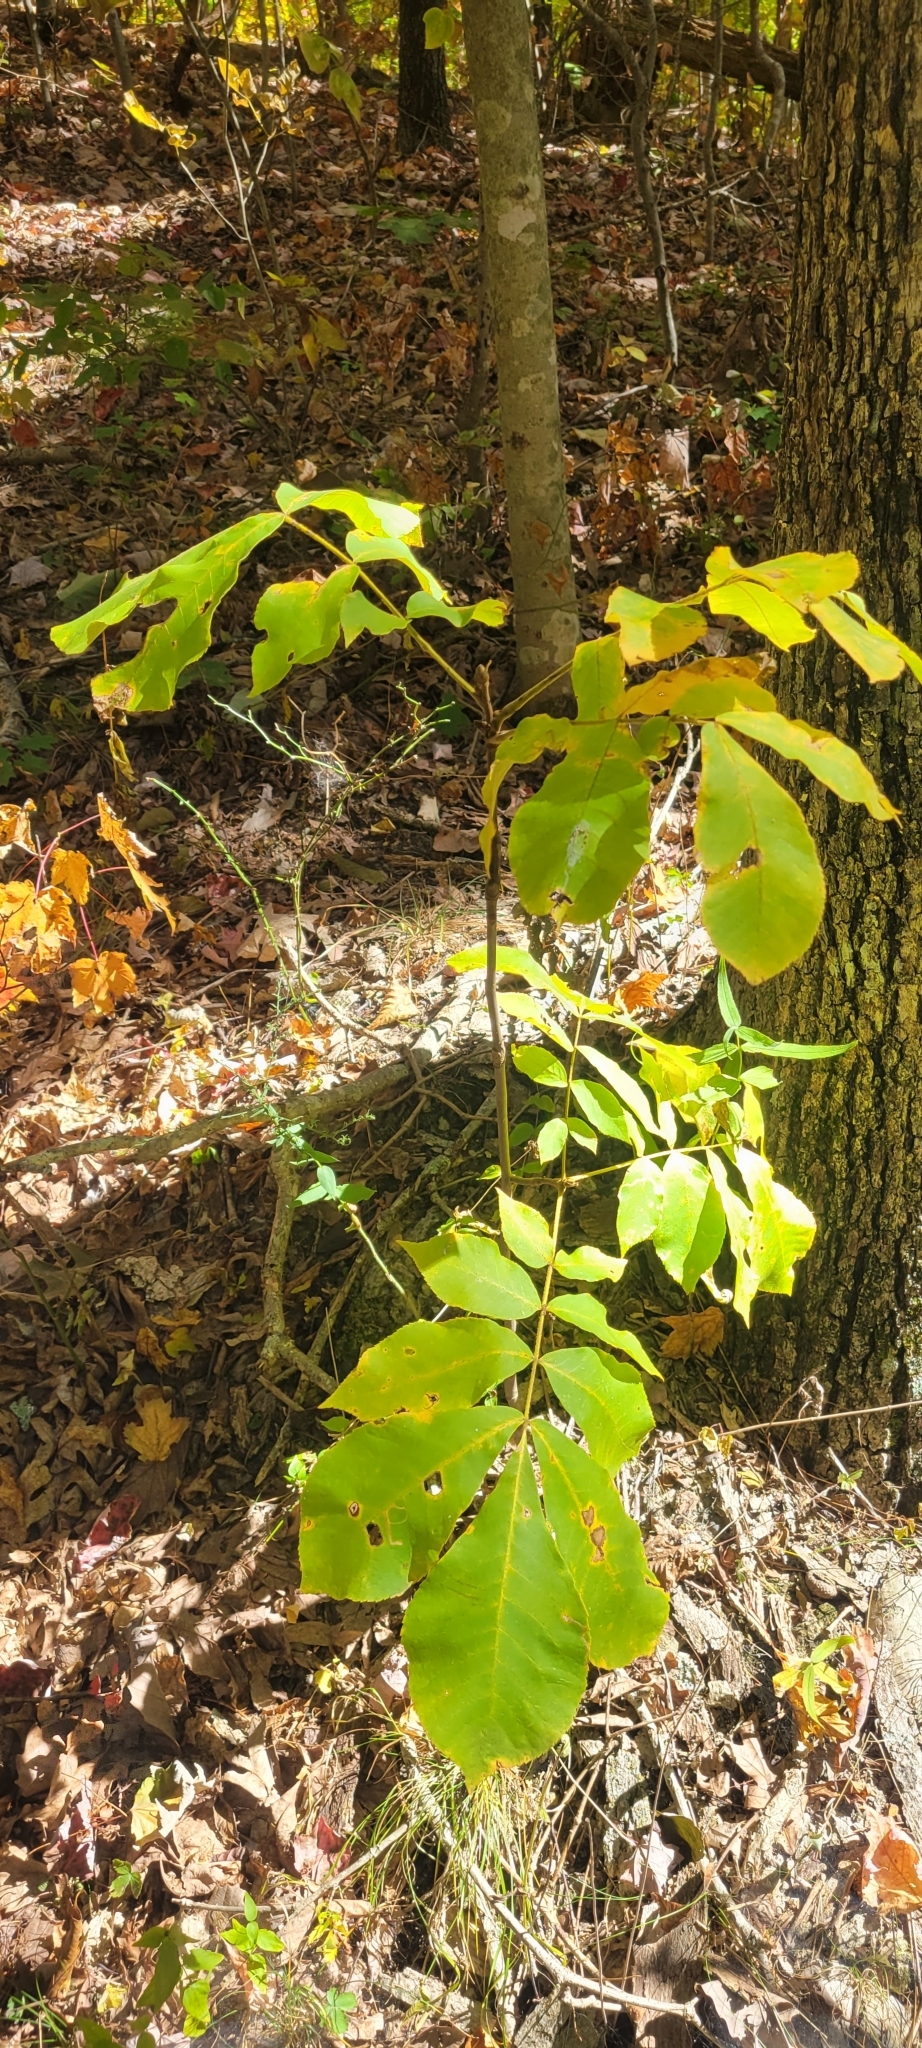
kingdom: Plantae
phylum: Tracheophyta
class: Magnoliopsida
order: Fagales
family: Juglandaceae
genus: Carya
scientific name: Carya alba
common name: Mockernut hickory
